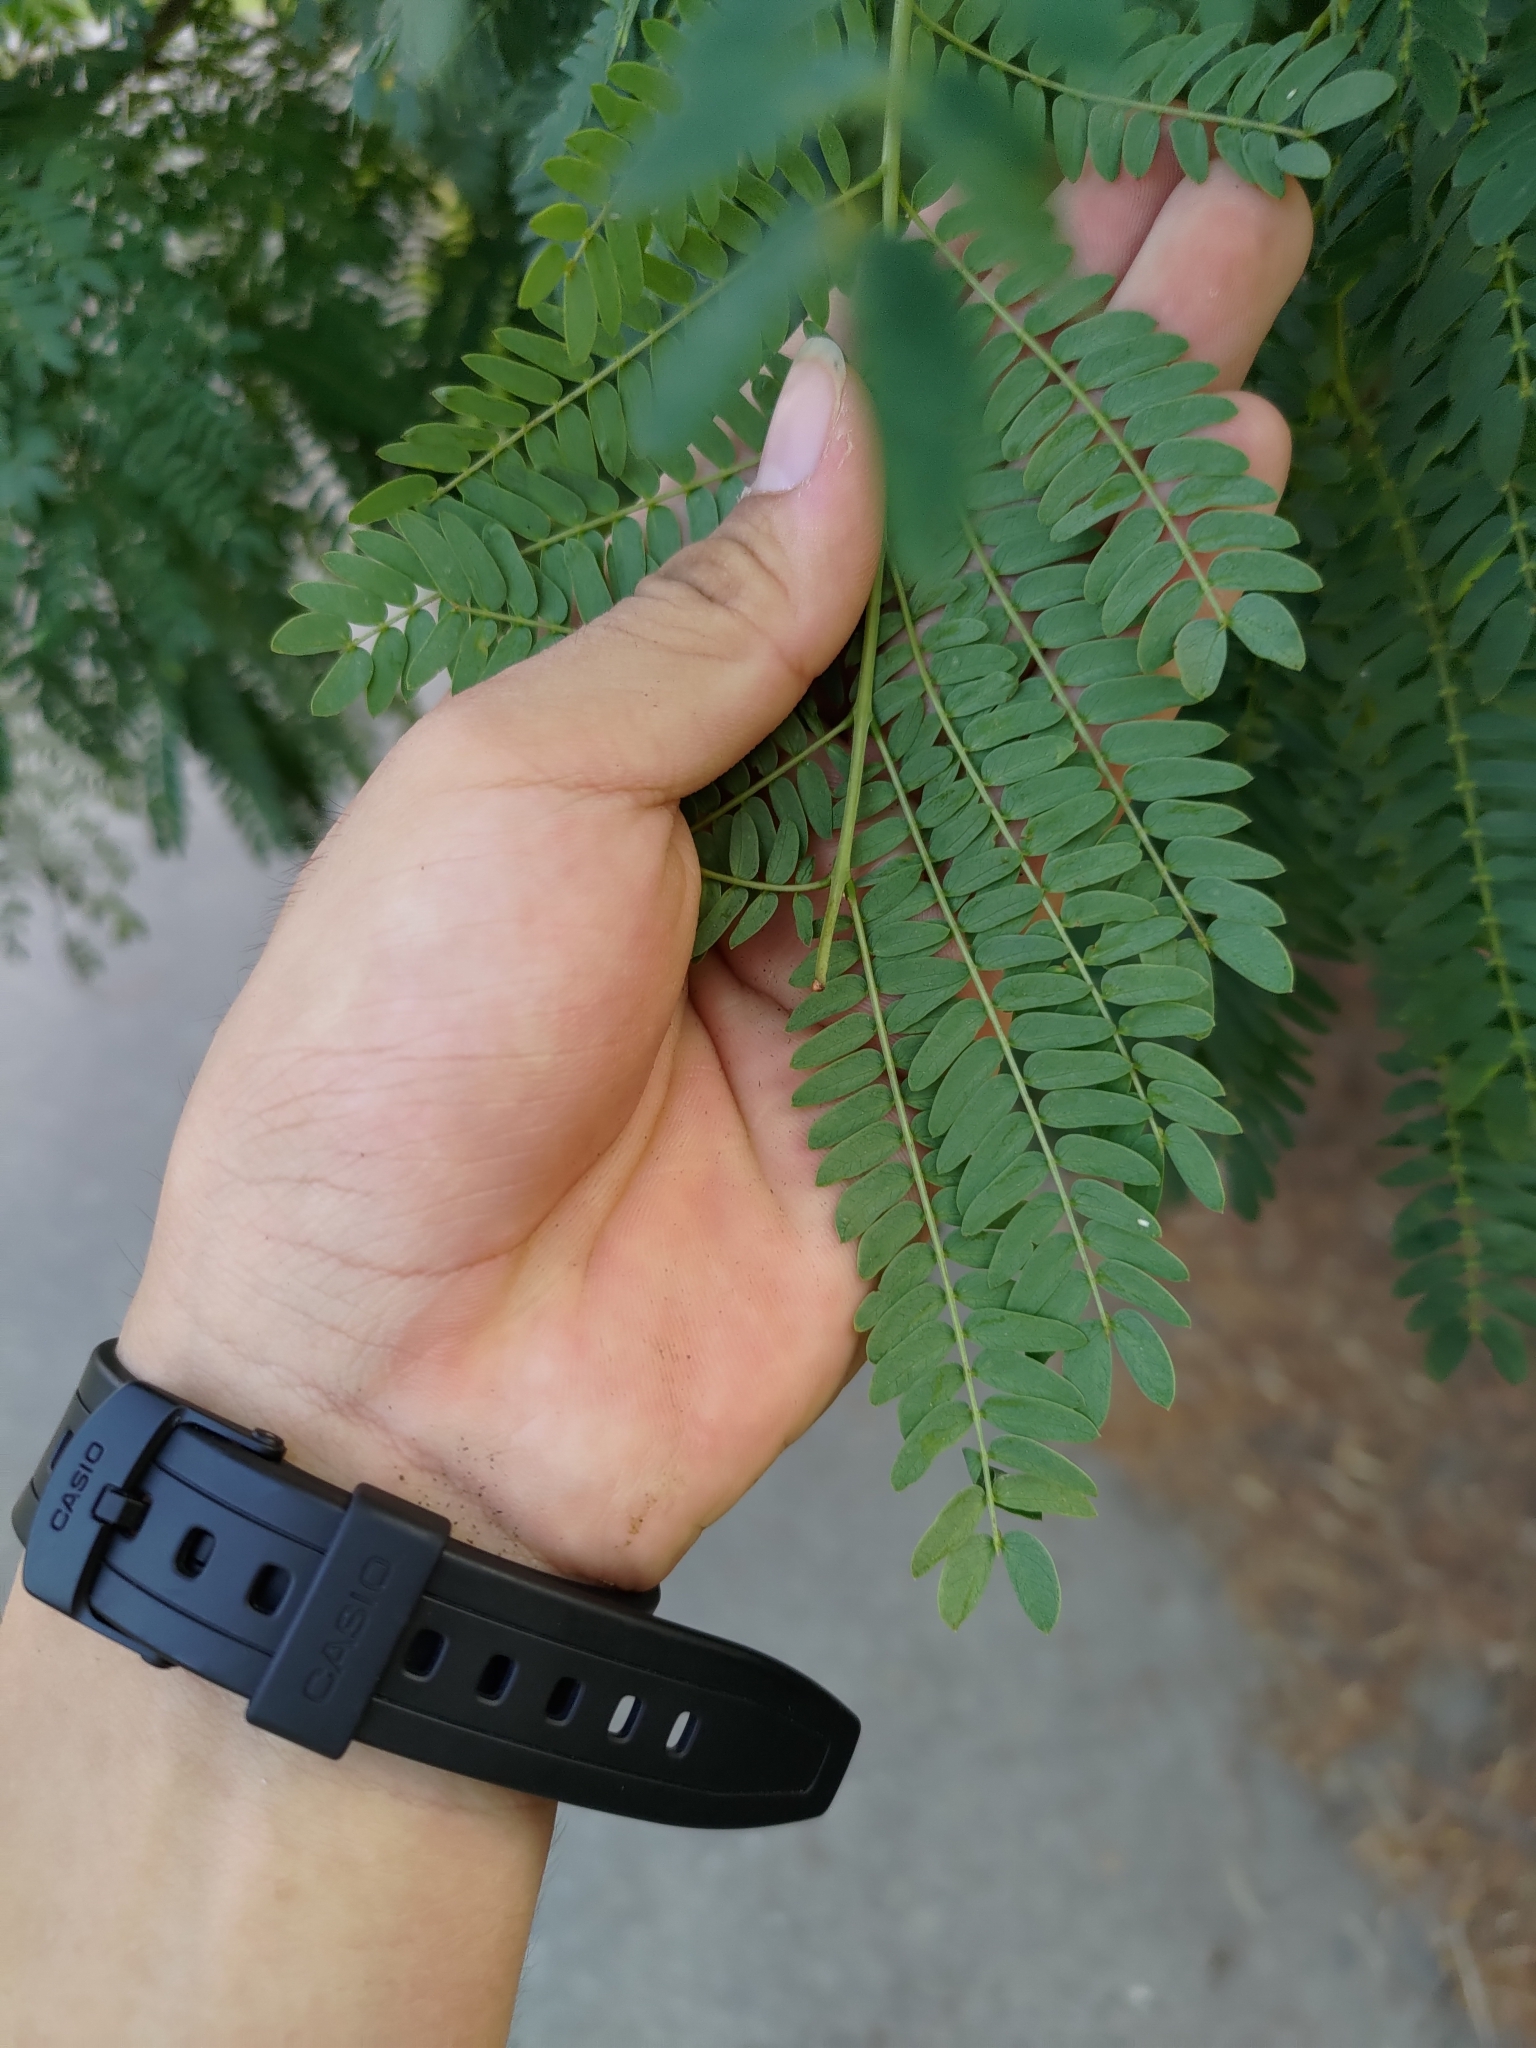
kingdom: Plantae
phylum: Tracheophyta
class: Magnoliopsida
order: Fabales
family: Fabaceae
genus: Leucaena
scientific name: Leucaena leucocephala
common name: White leadtree
